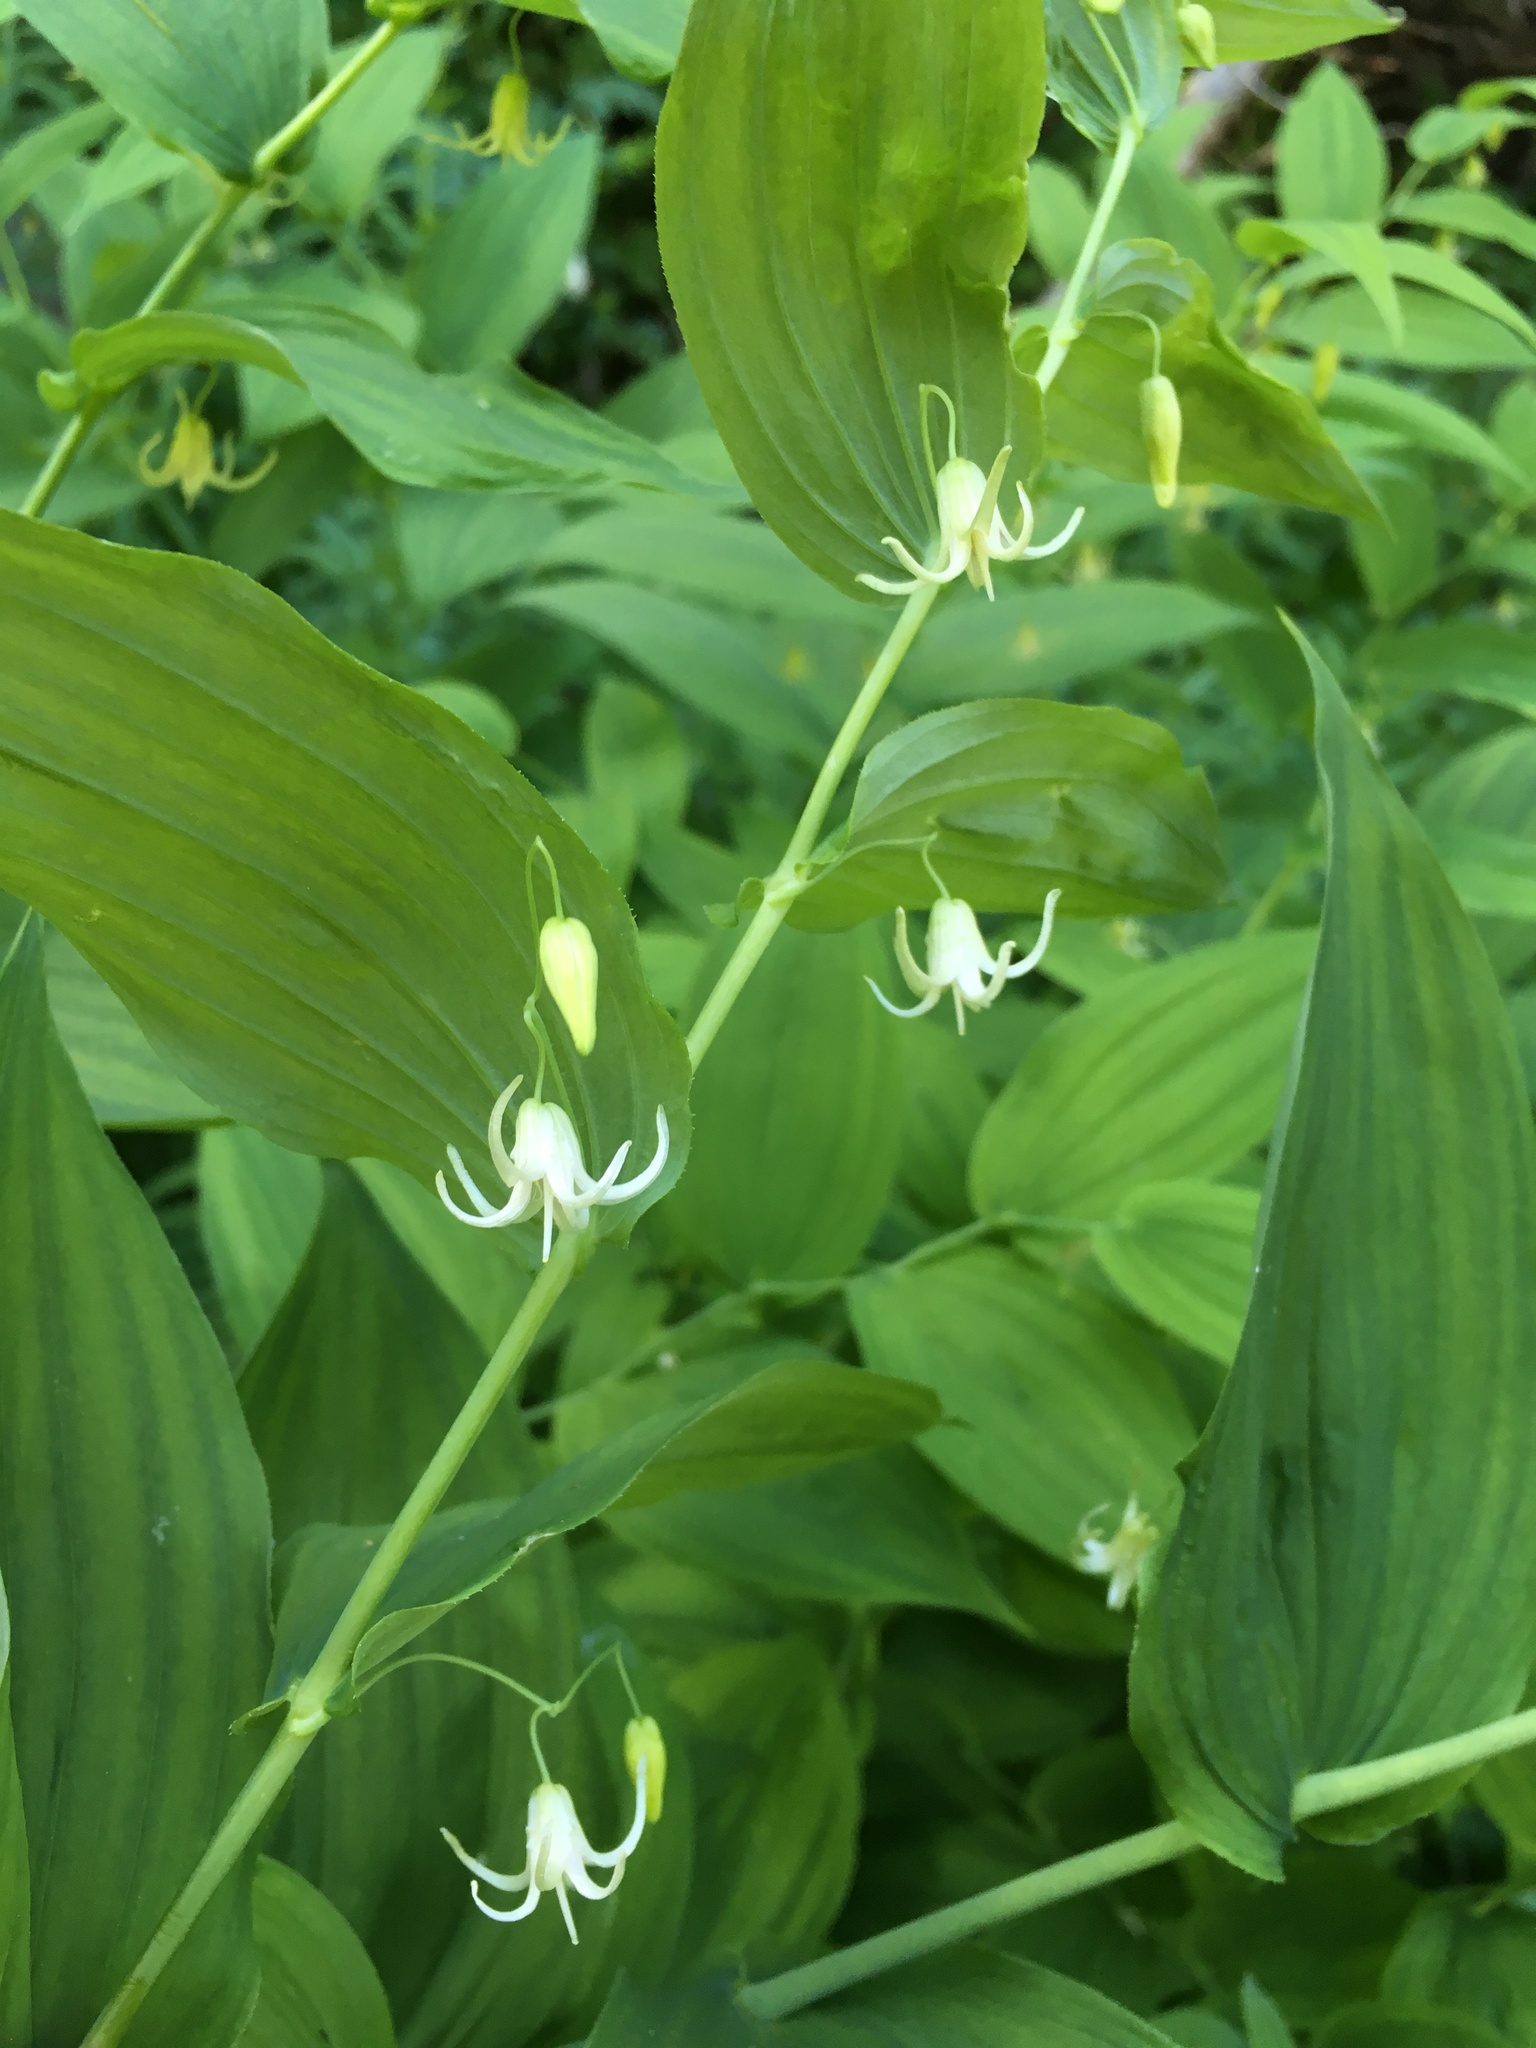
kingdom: Plantae
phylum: Tracheophyta
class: Liliopsida
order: Liliales
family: Liliaceae
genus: Streptopus
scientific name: Streptopus amplexifolius
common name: Clasp twisted stalk
